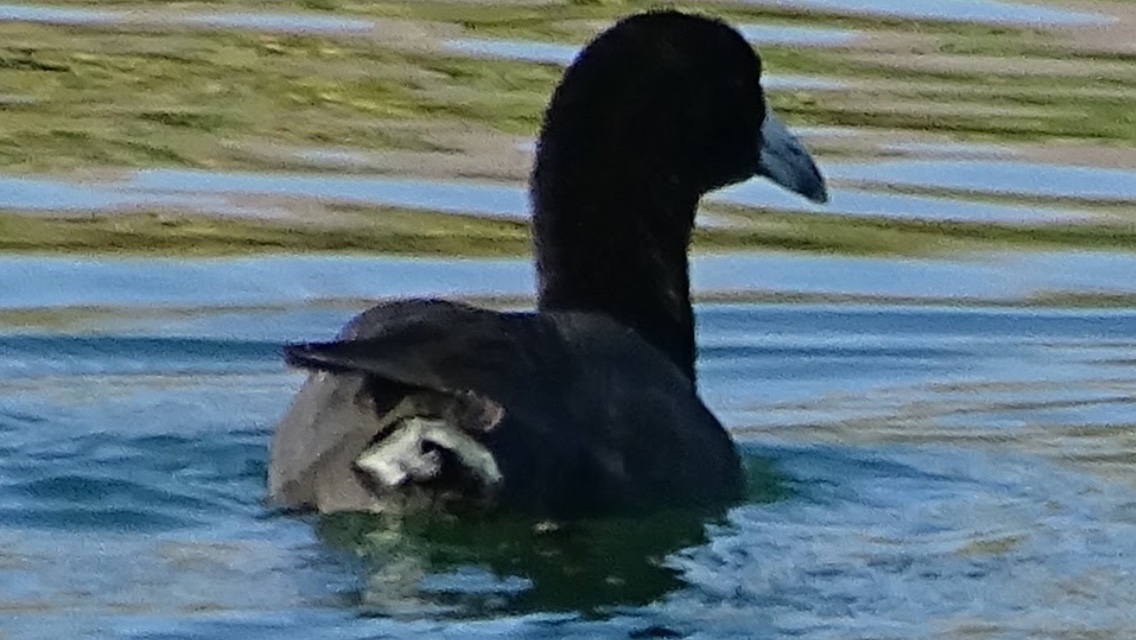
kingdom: Animalia
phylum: Chordata
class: Aves
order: Gruiformes
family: Rallidae
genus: Fulica
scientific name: Fulica americana
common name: American coot
